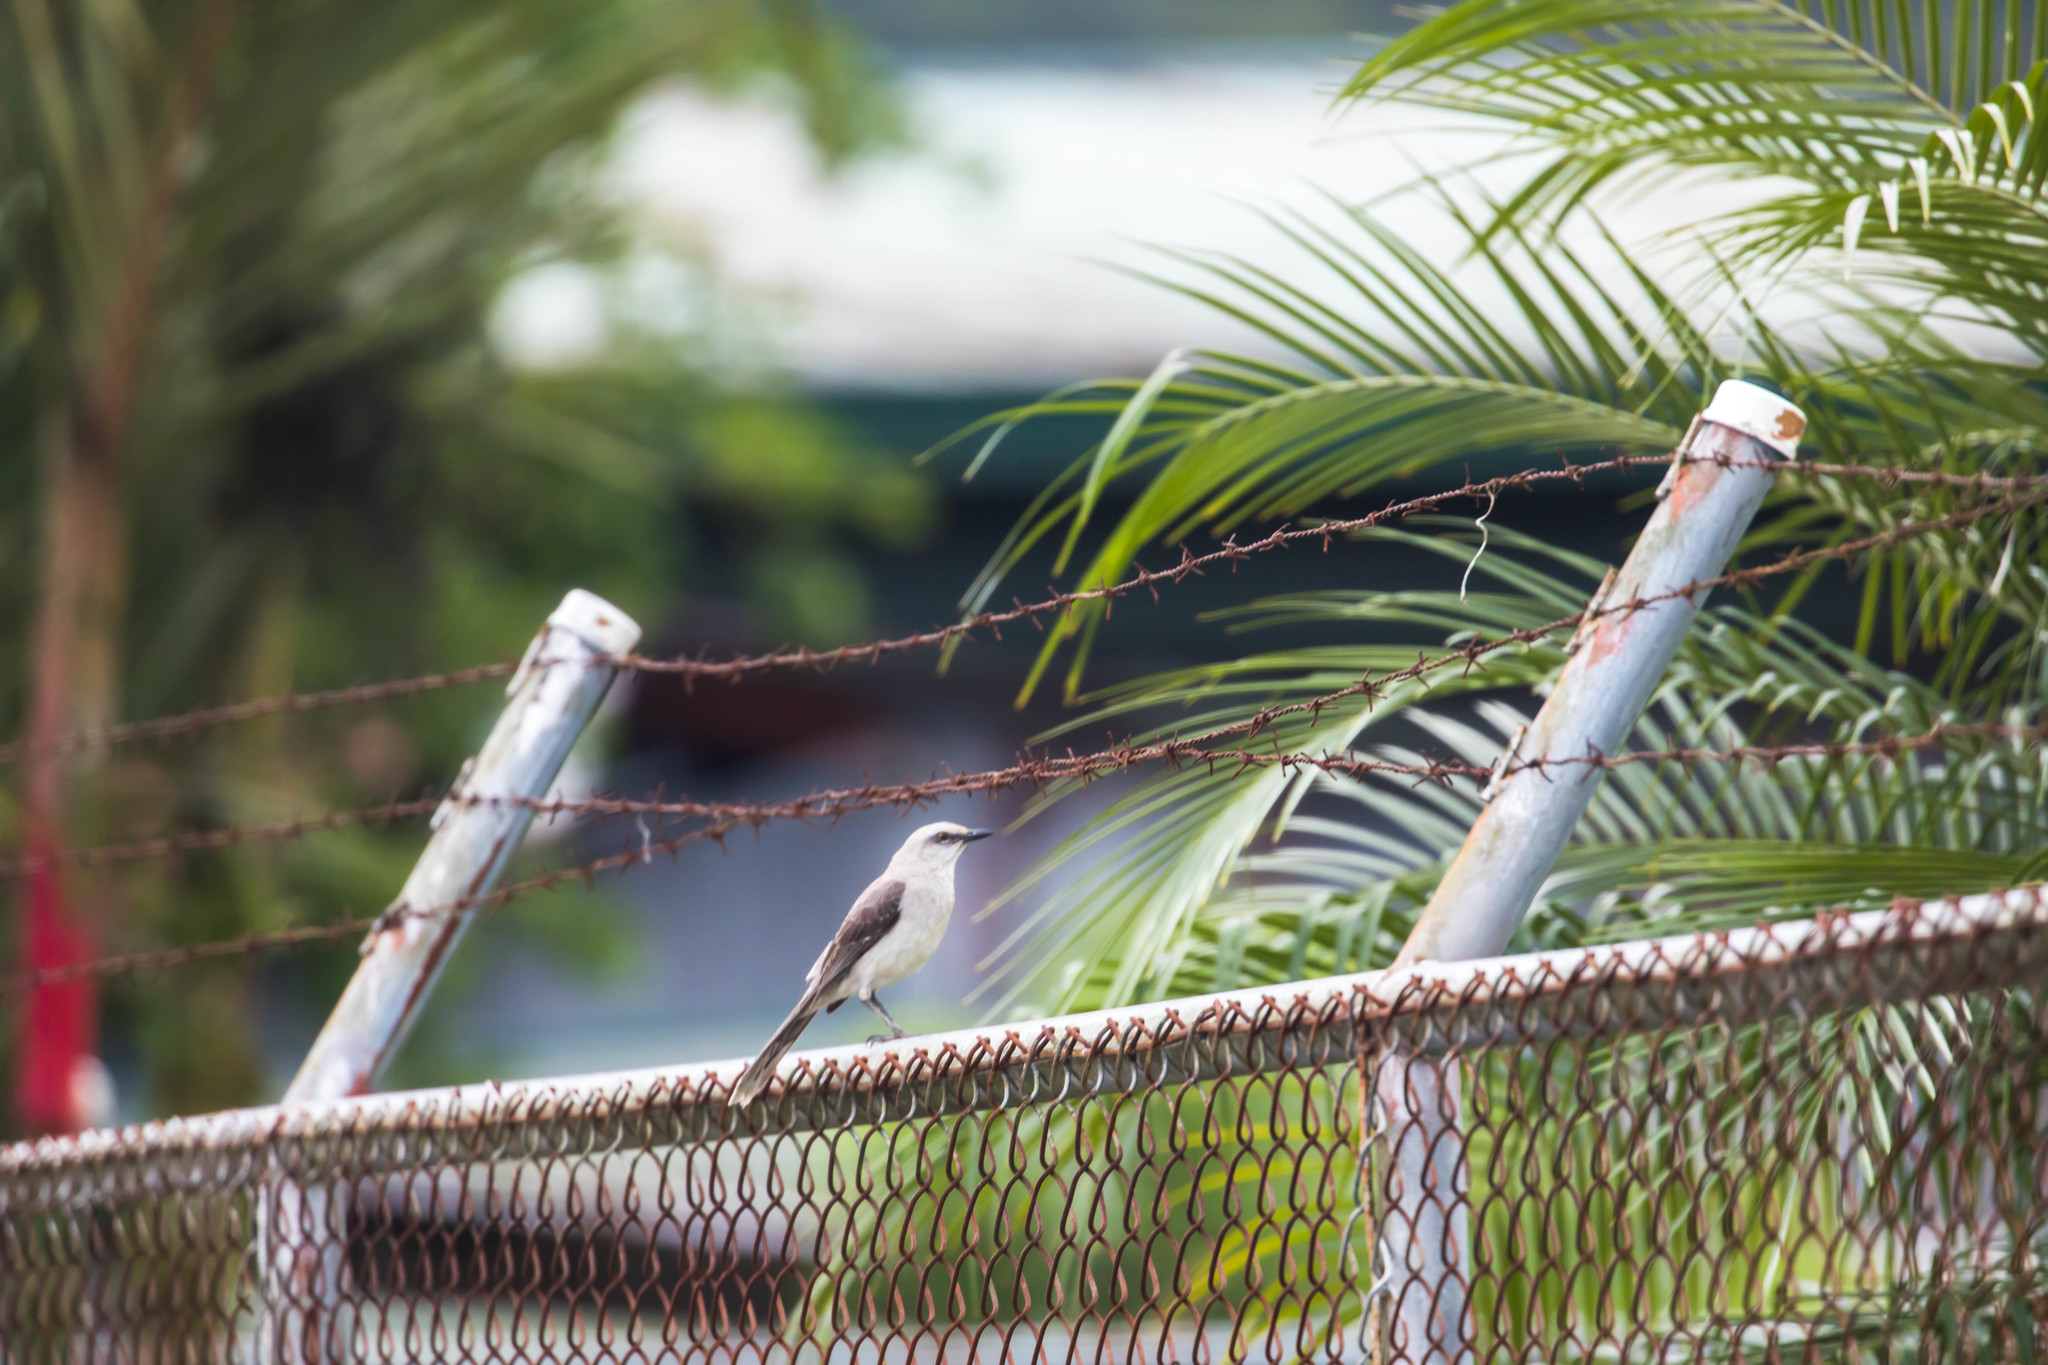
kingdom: Animalia
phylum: Chordata
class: Aves
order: Passeriformes
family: Mimidae
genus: Mimus
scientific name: Mimus gilvus
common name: Tropical mockingbird
